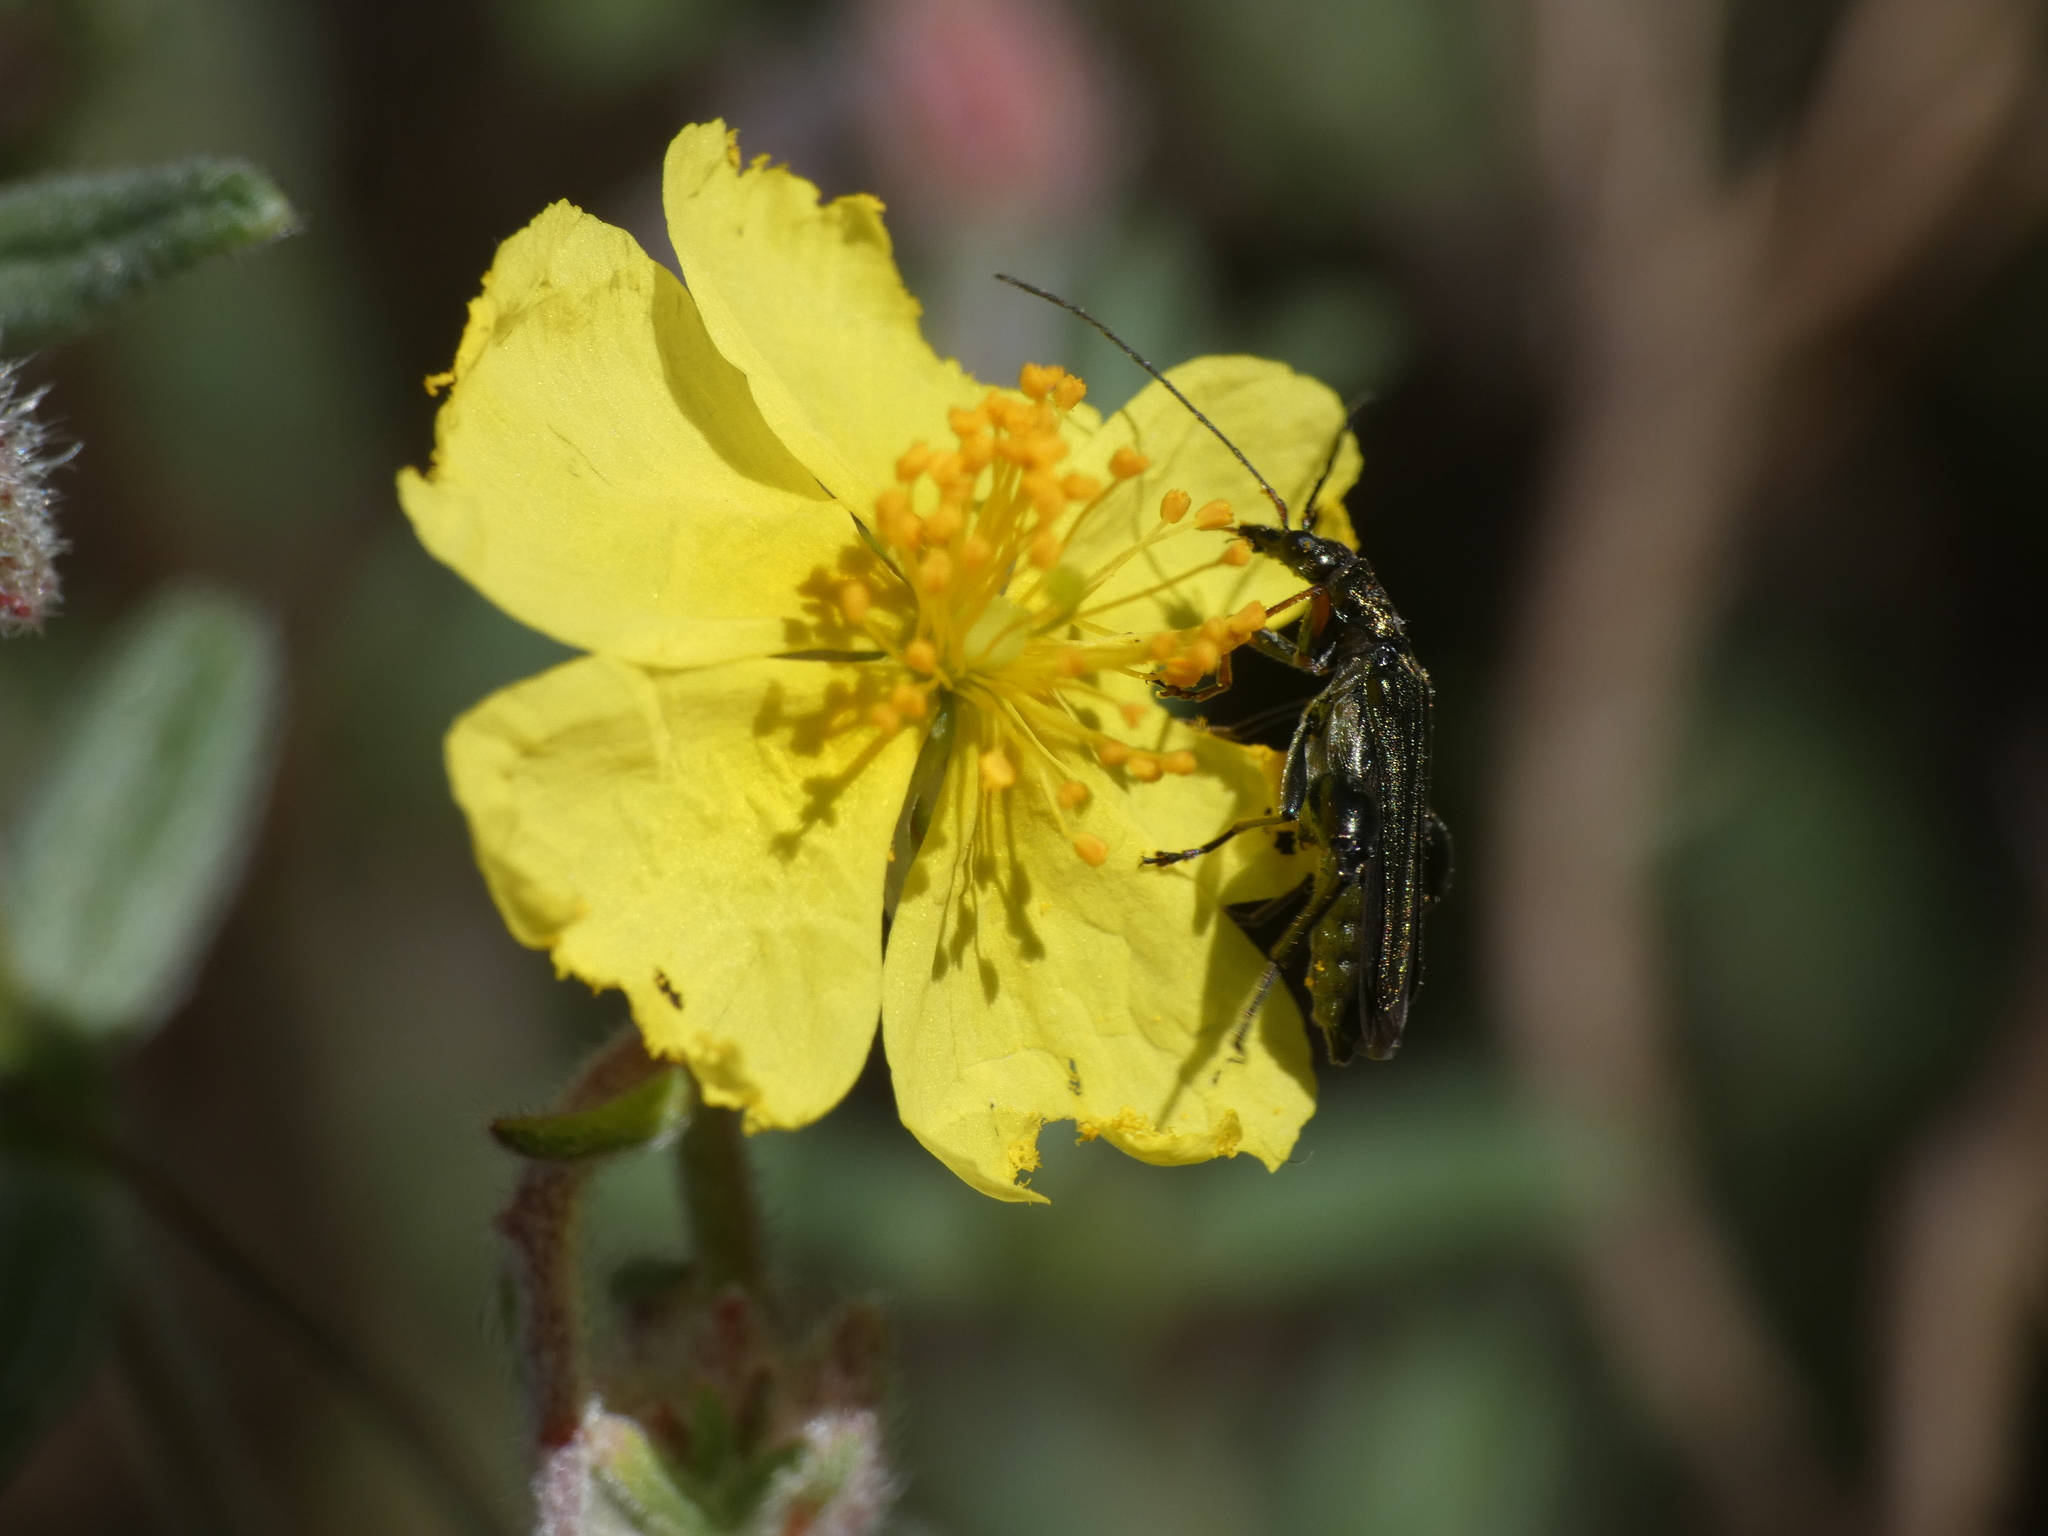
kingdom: Animalia
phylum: Arthropoda
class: Insecta
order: Coleoptera
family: Oedemeridae
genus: Oedemera
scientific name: Oedemera flavipes
